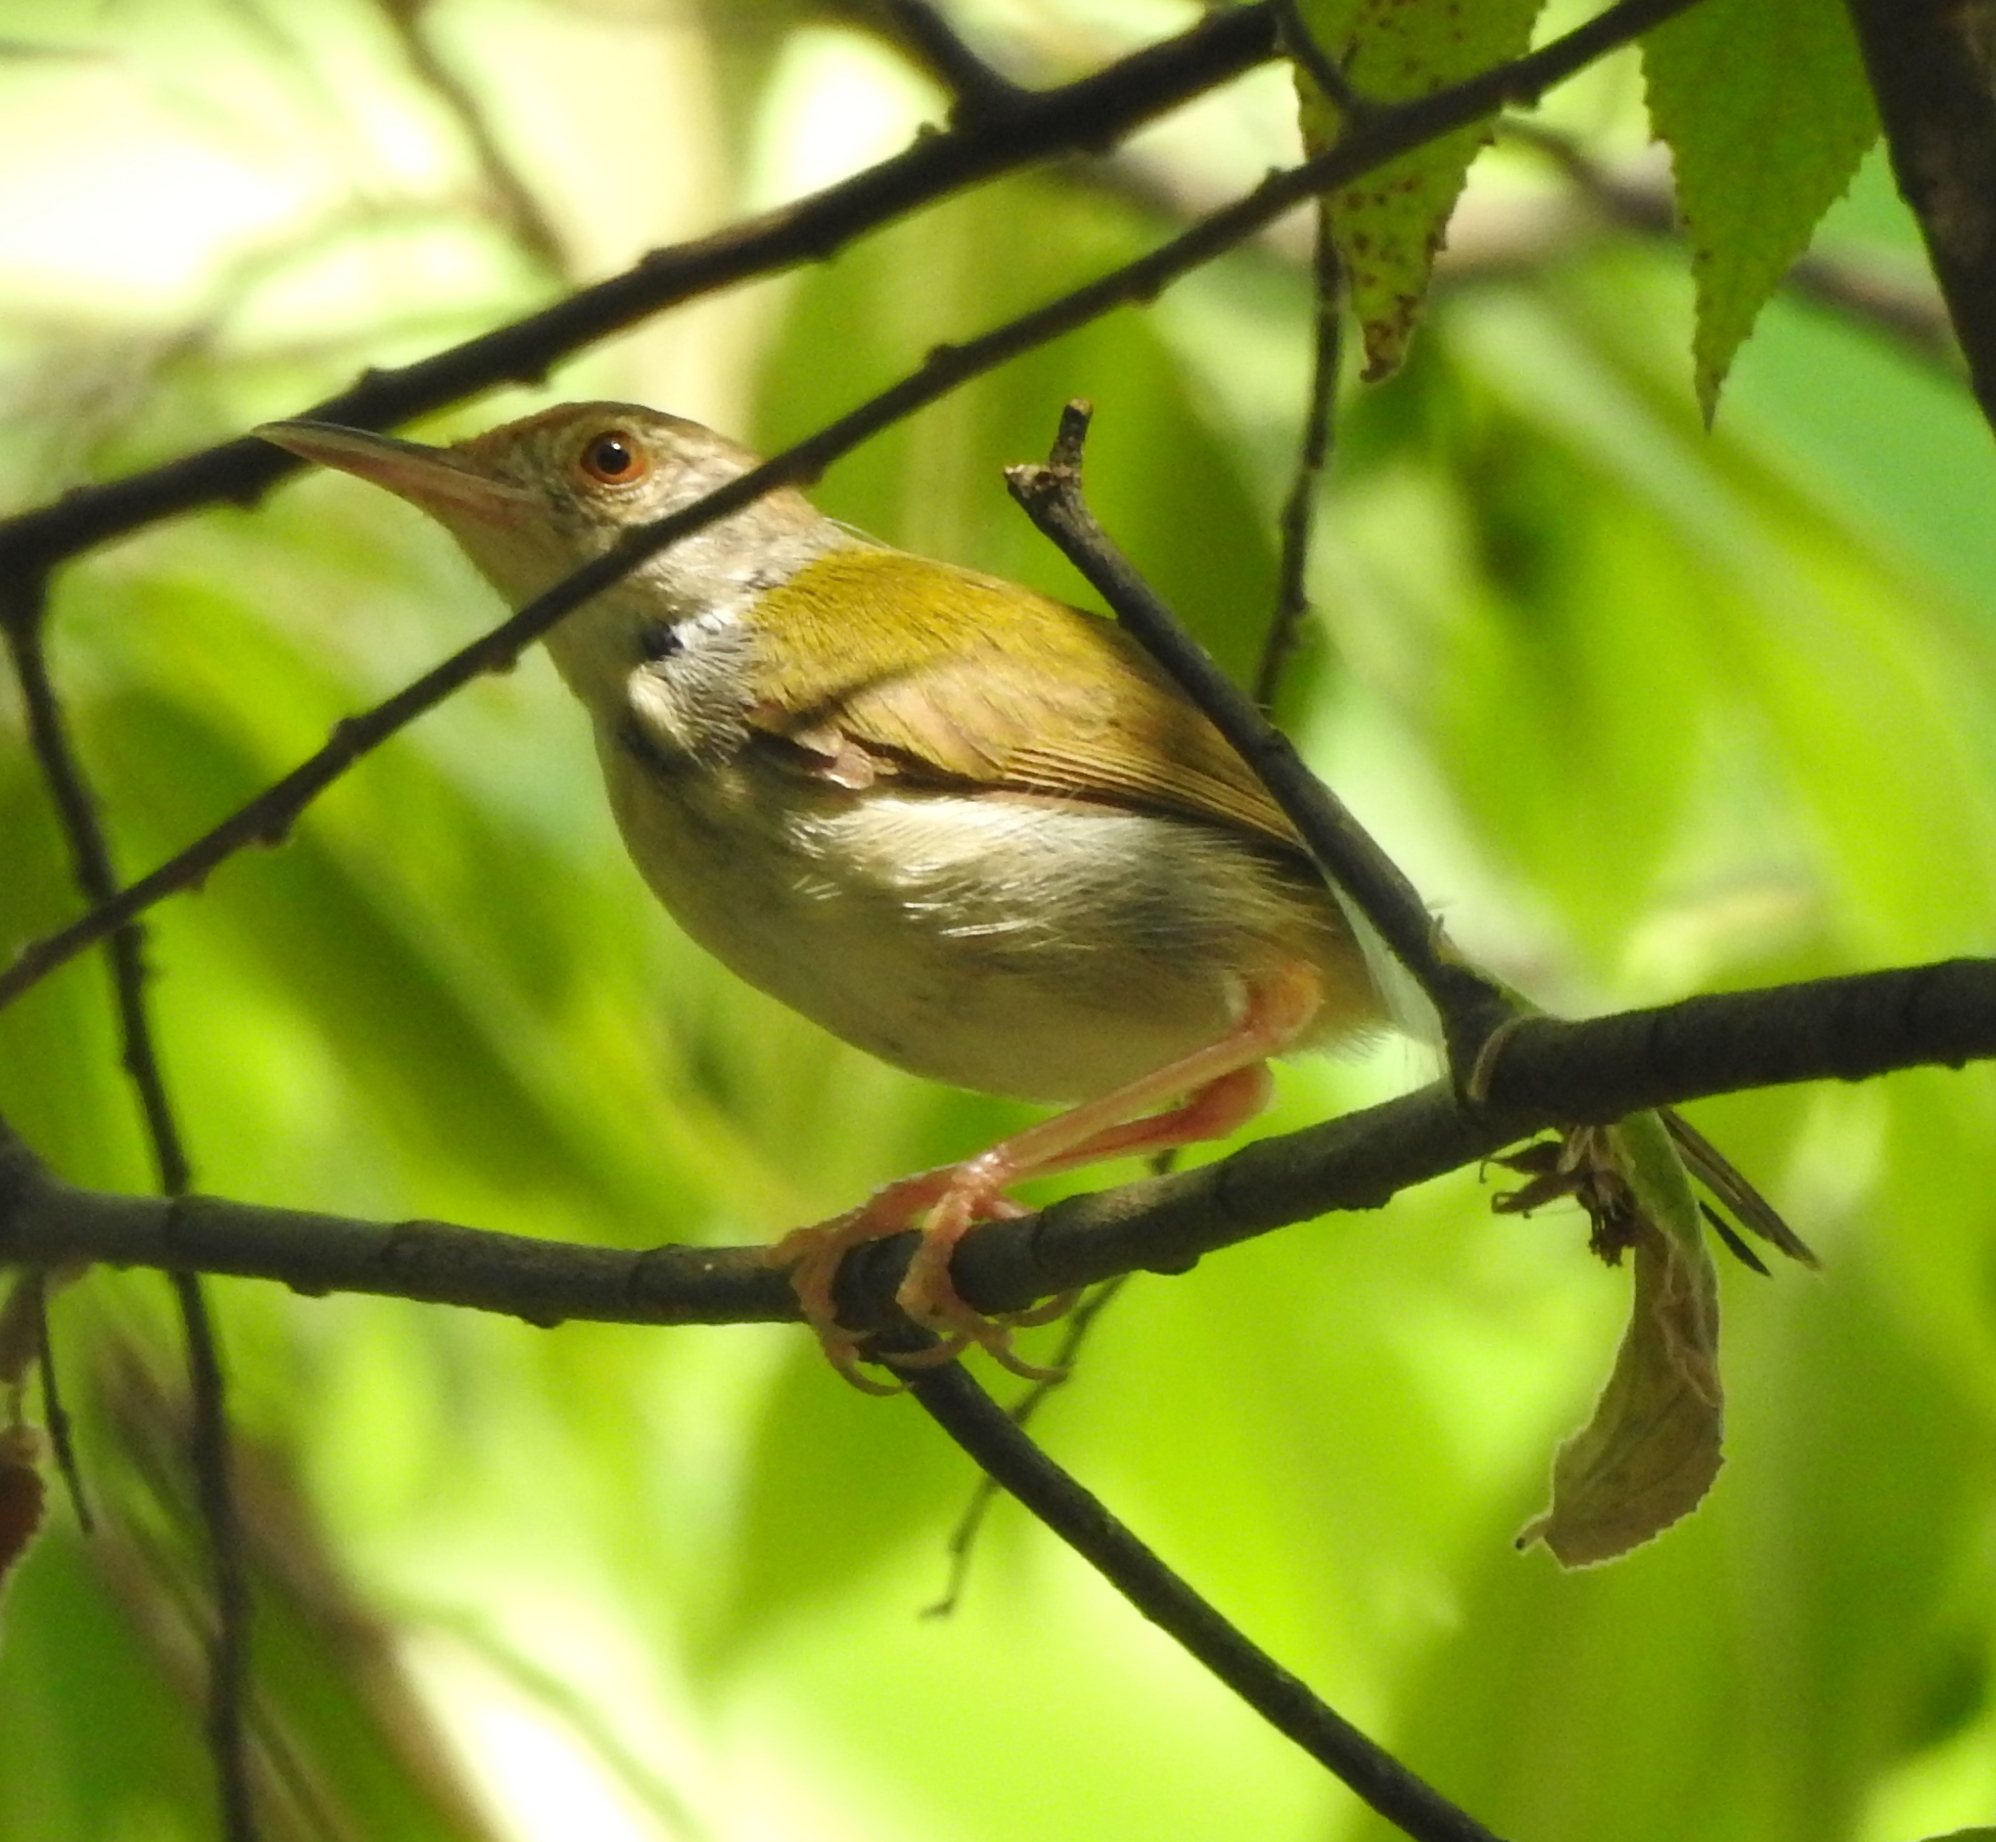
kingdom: Animalia
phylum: Chordata
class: Aves
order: Passeriformes
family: Cisticolidae
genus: Orthotomus
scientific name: Orthotomus sutorius
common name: Common tailorbird
